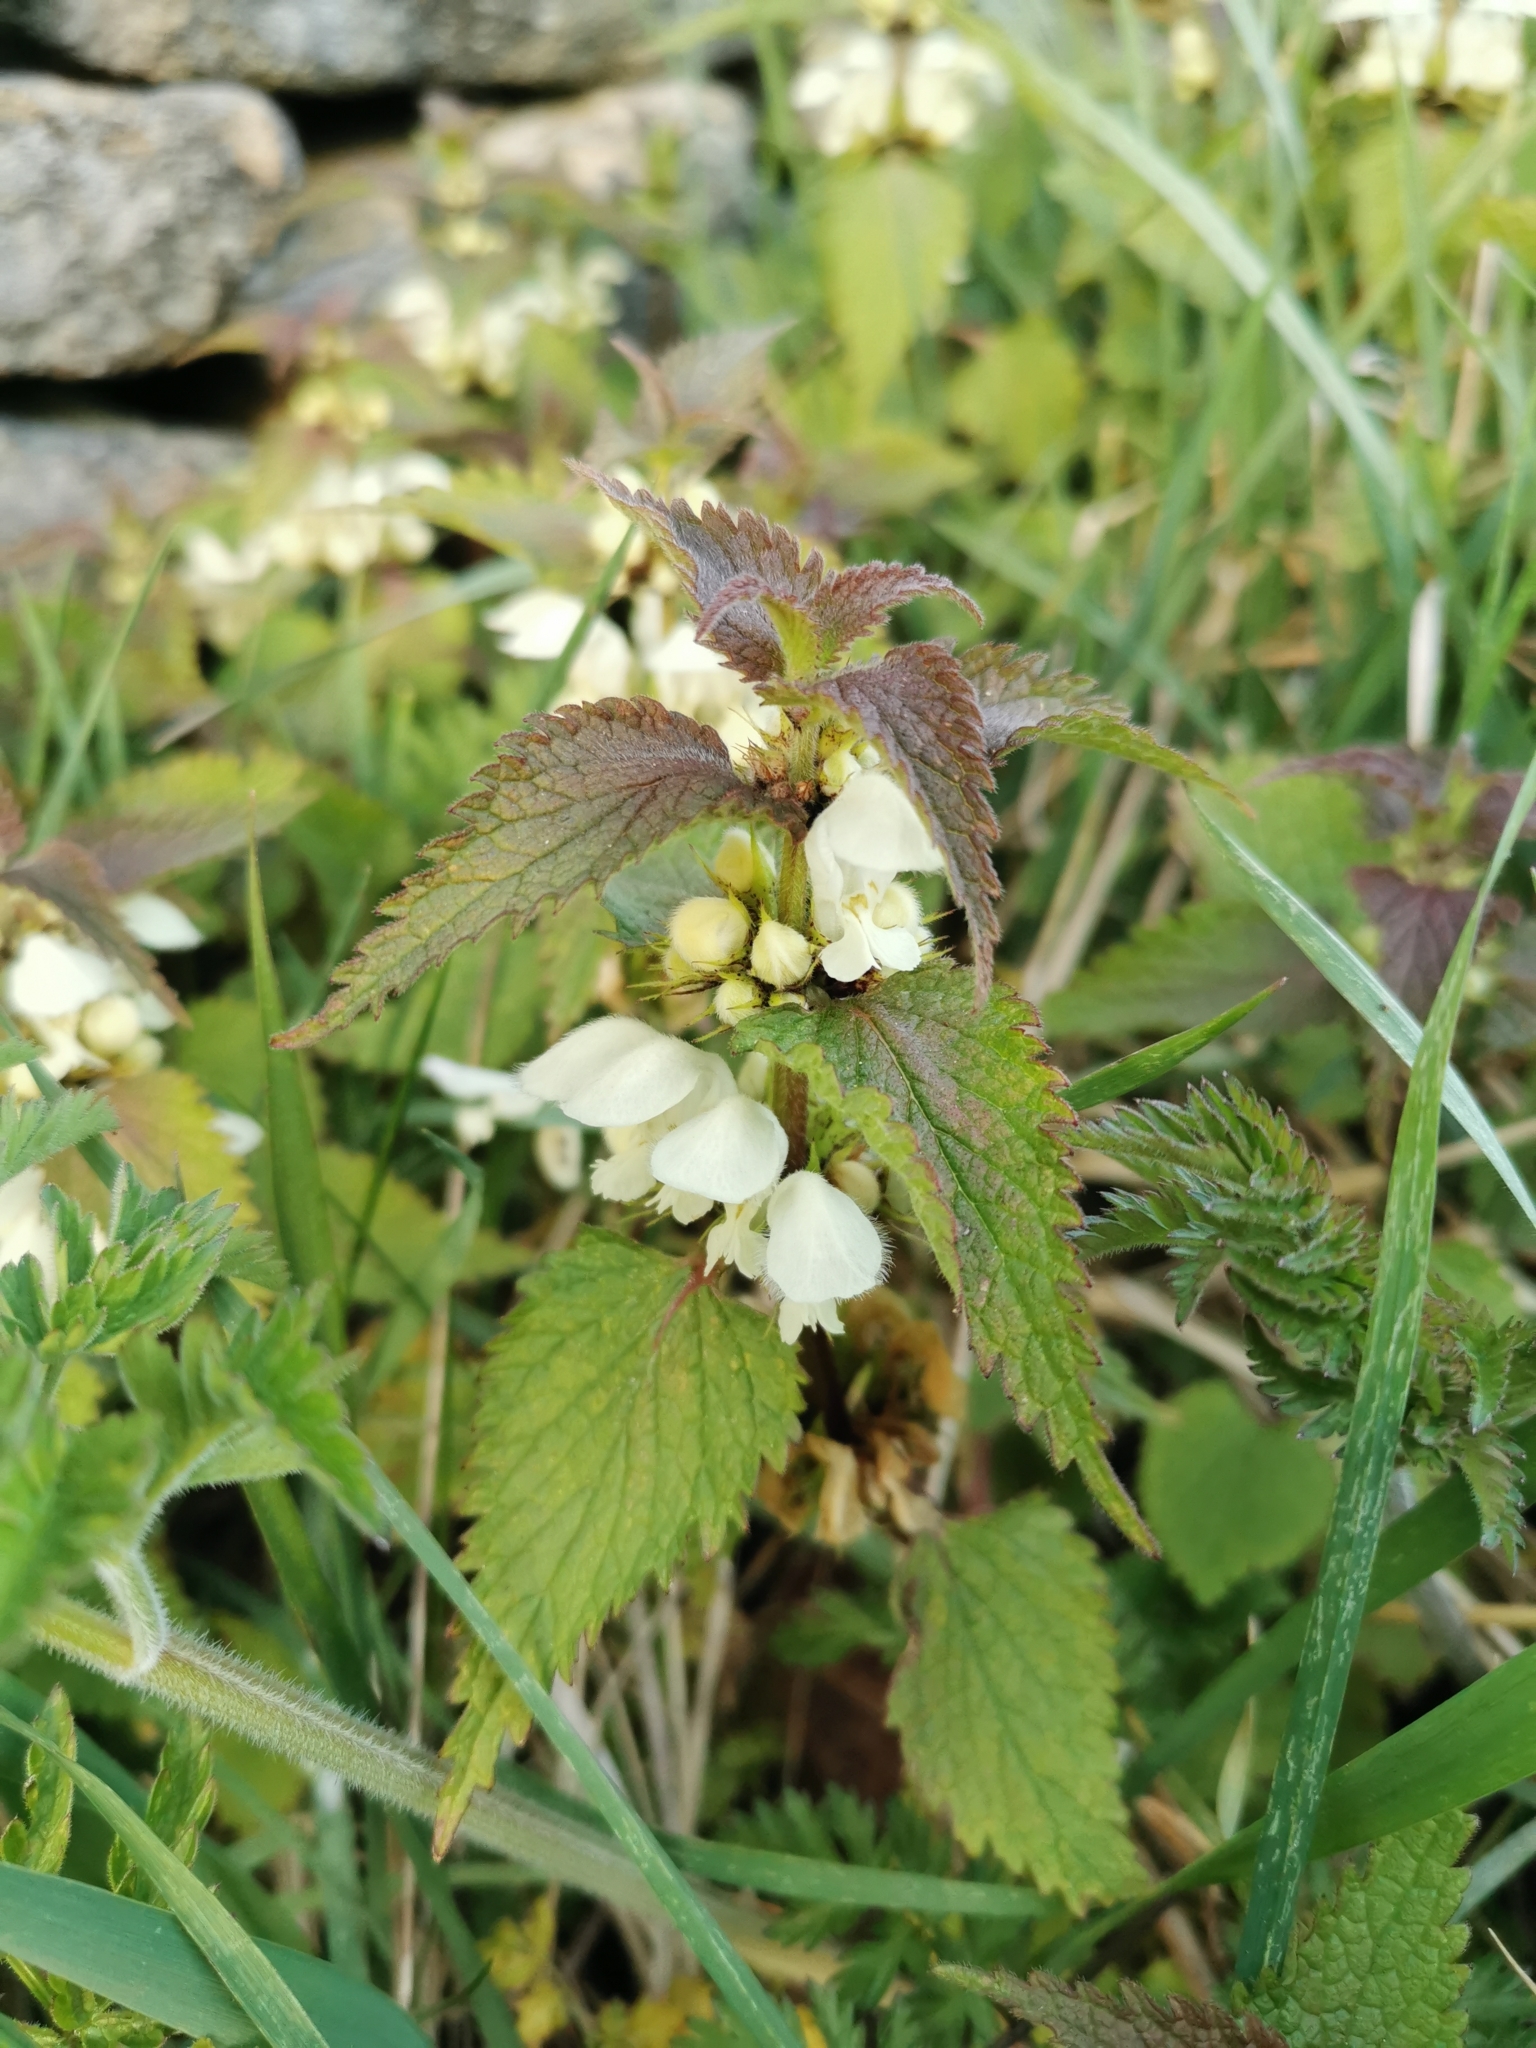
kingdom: Plantae
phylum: Tracheophyta
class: Magnoliopsida
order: Lamiales
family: Lamiaceae
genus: Lamium
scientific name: Lamium album
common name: White dead-nettle
